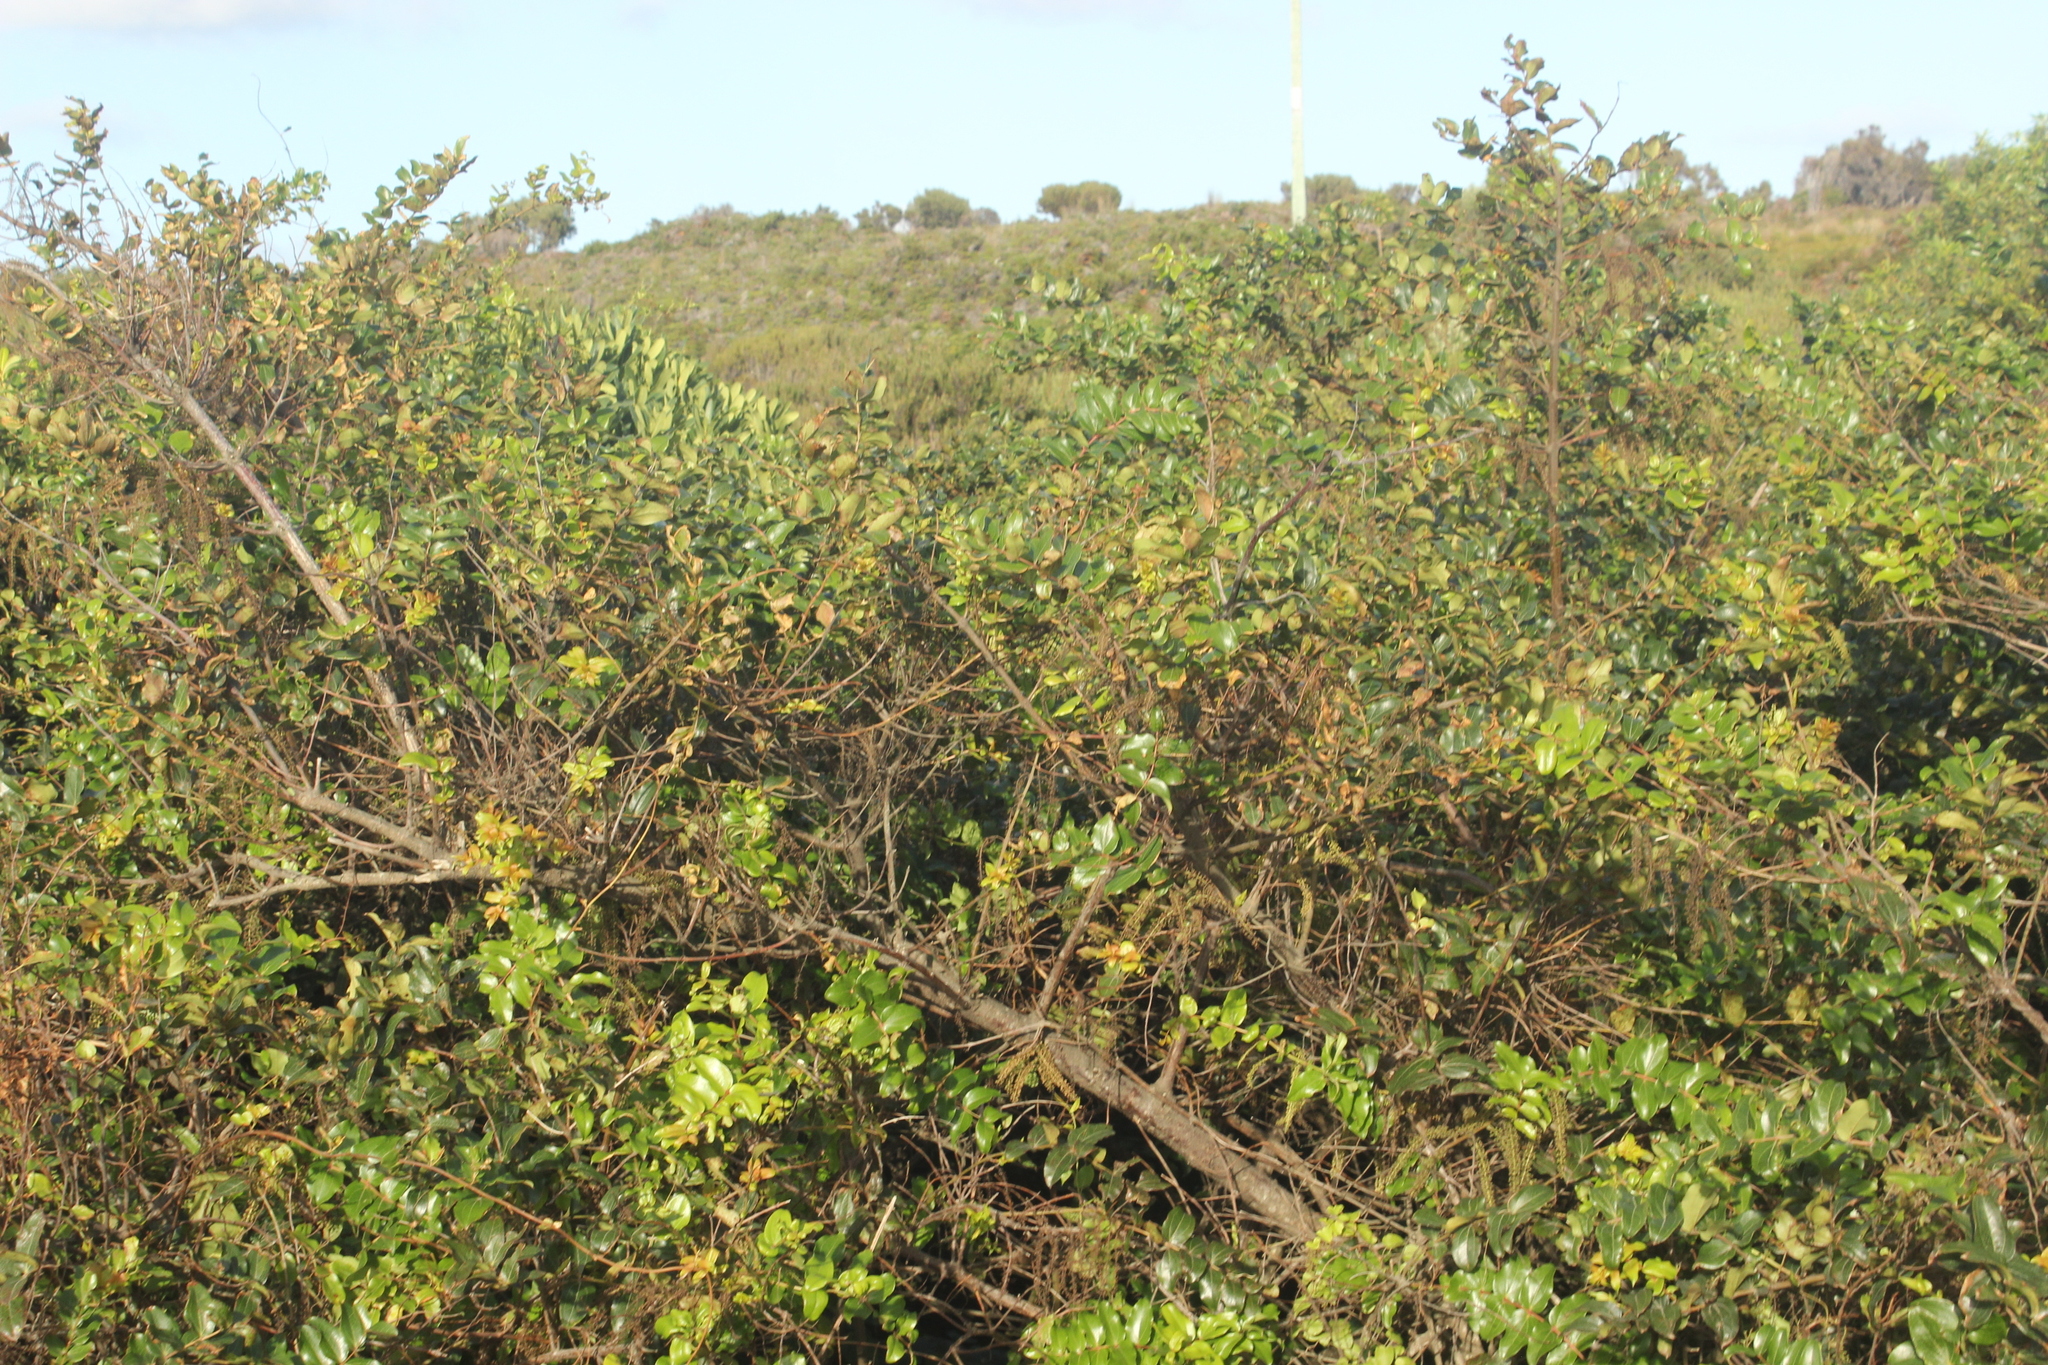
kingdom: Plantae
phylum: Tracheophyta
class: Magnoliopsida
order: Cucurbitales
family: Coriariaceae
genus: Coriaria
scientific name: Coriaria arborea
